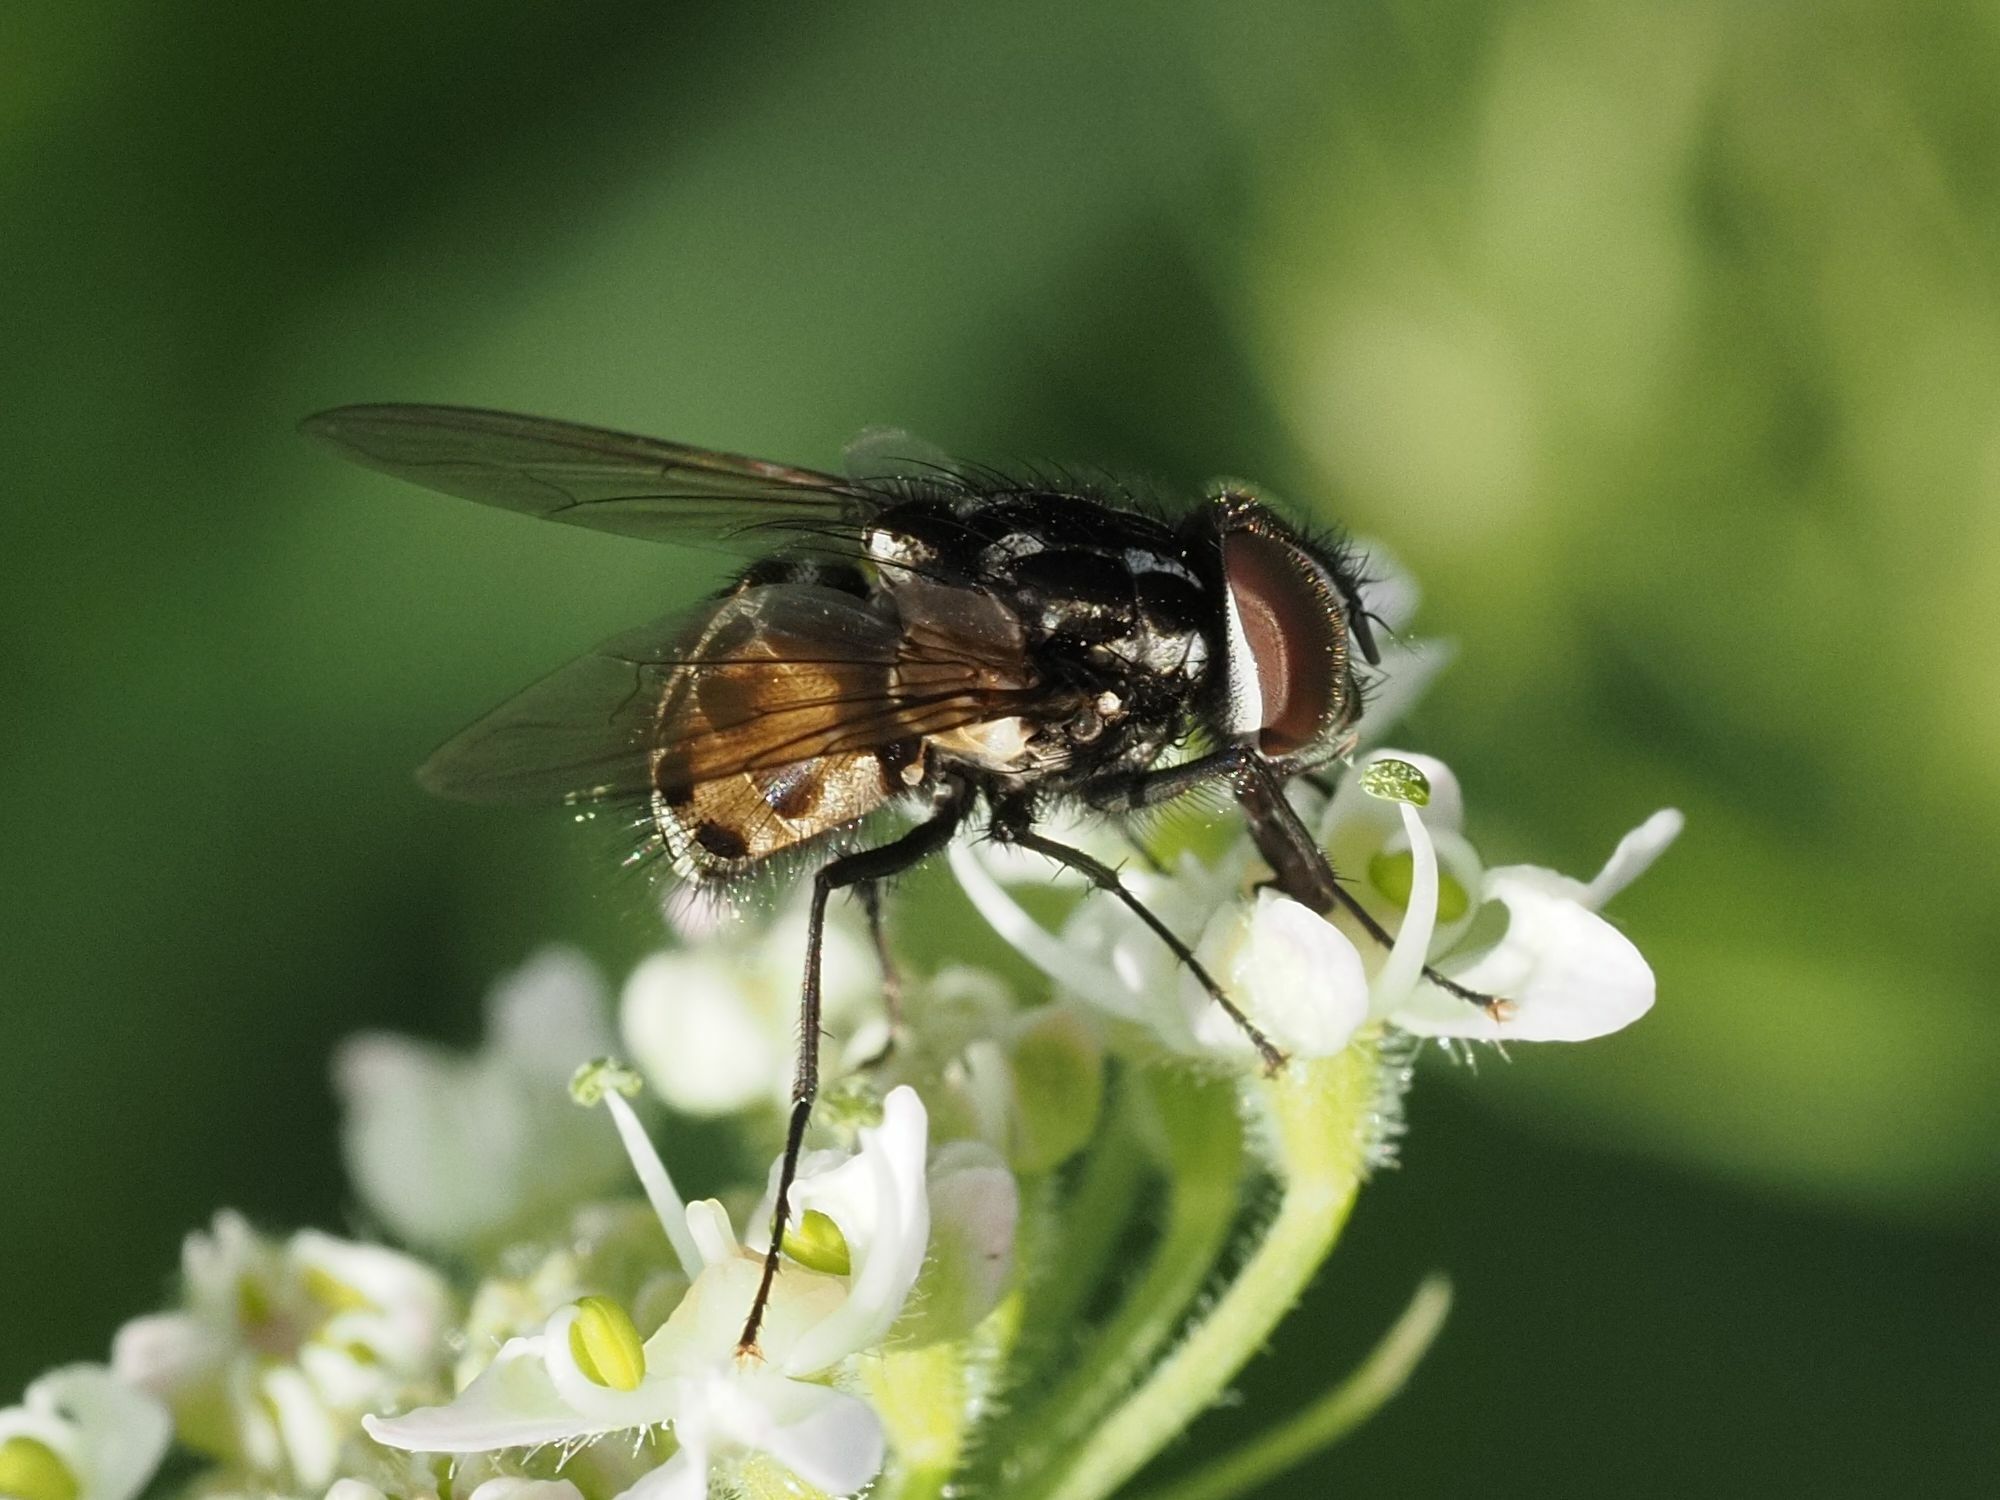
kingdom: Animalia
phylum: Arthropoda
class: Insecta
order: Diptera
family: Muscidae
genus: Graphomya
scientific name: Graphomya maculata
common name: Muscid fly
